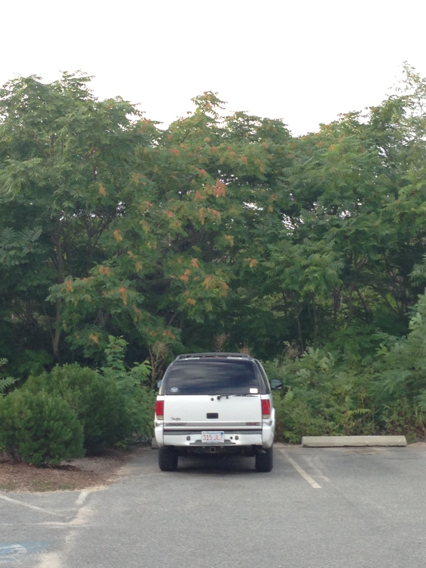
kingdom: Plantae
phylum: Tracheophyta
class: Magnoliopsida
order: Sapindales
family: Simaroubaceae
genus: Ailanthus
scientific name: Ailanthus altissima
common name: Tree-of-heaven
